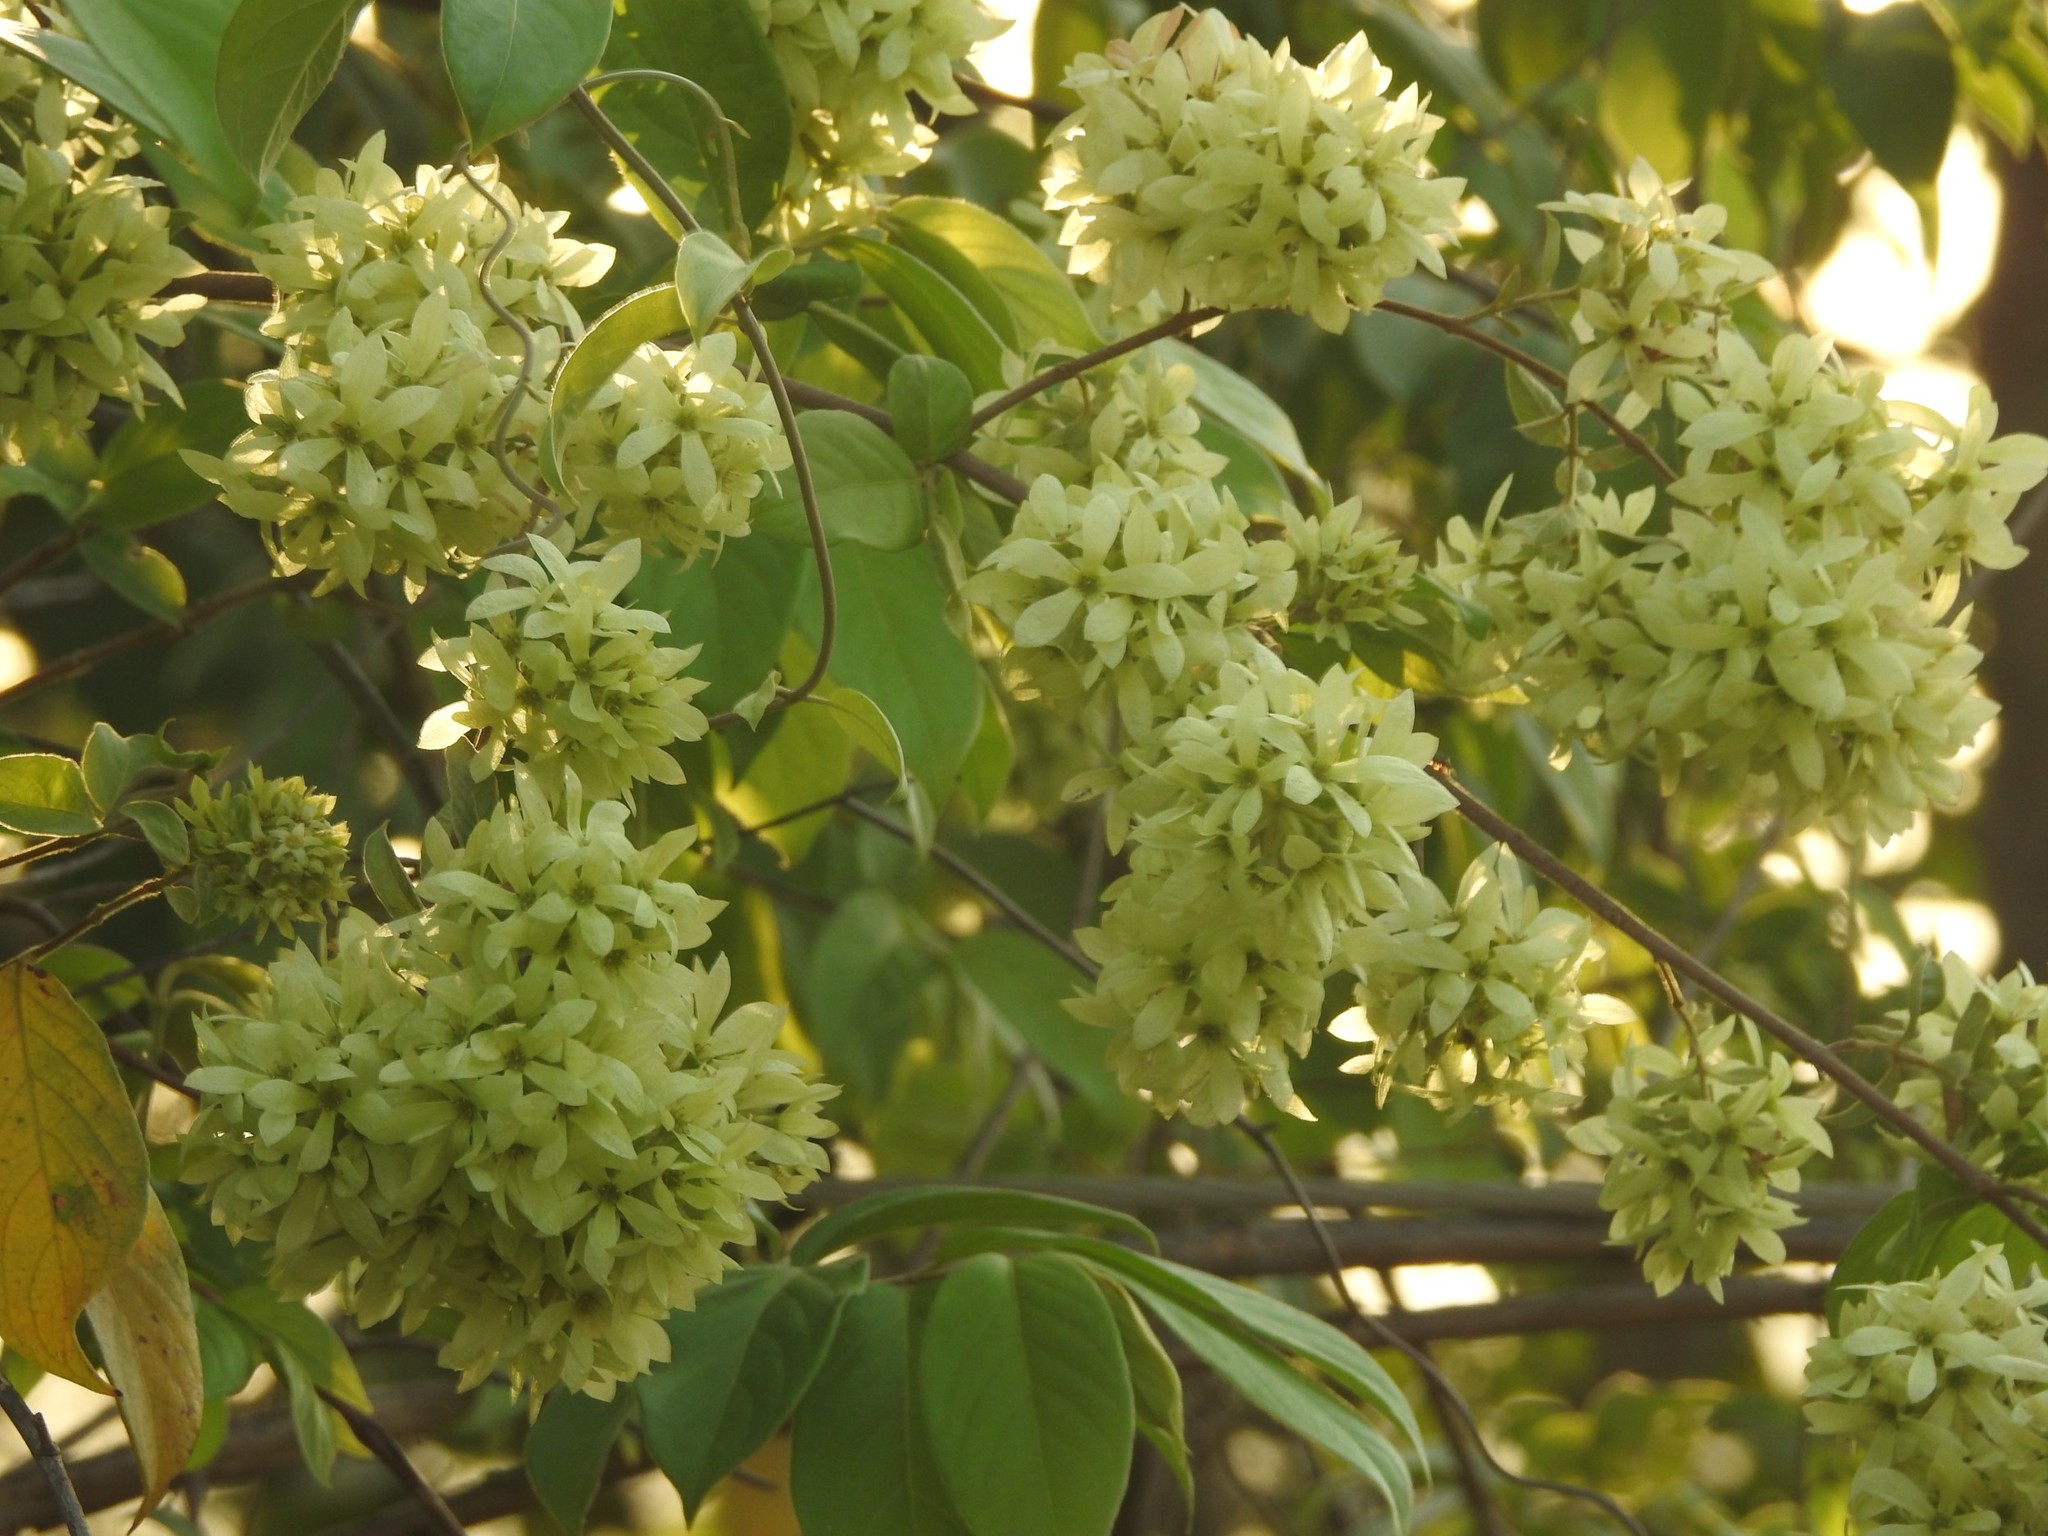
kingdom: Plantae
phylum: Tracheophyta
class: Magnoliopsida
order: Myrtales
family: Combretaceae
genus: Getonia
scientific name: Getonia floribunda
